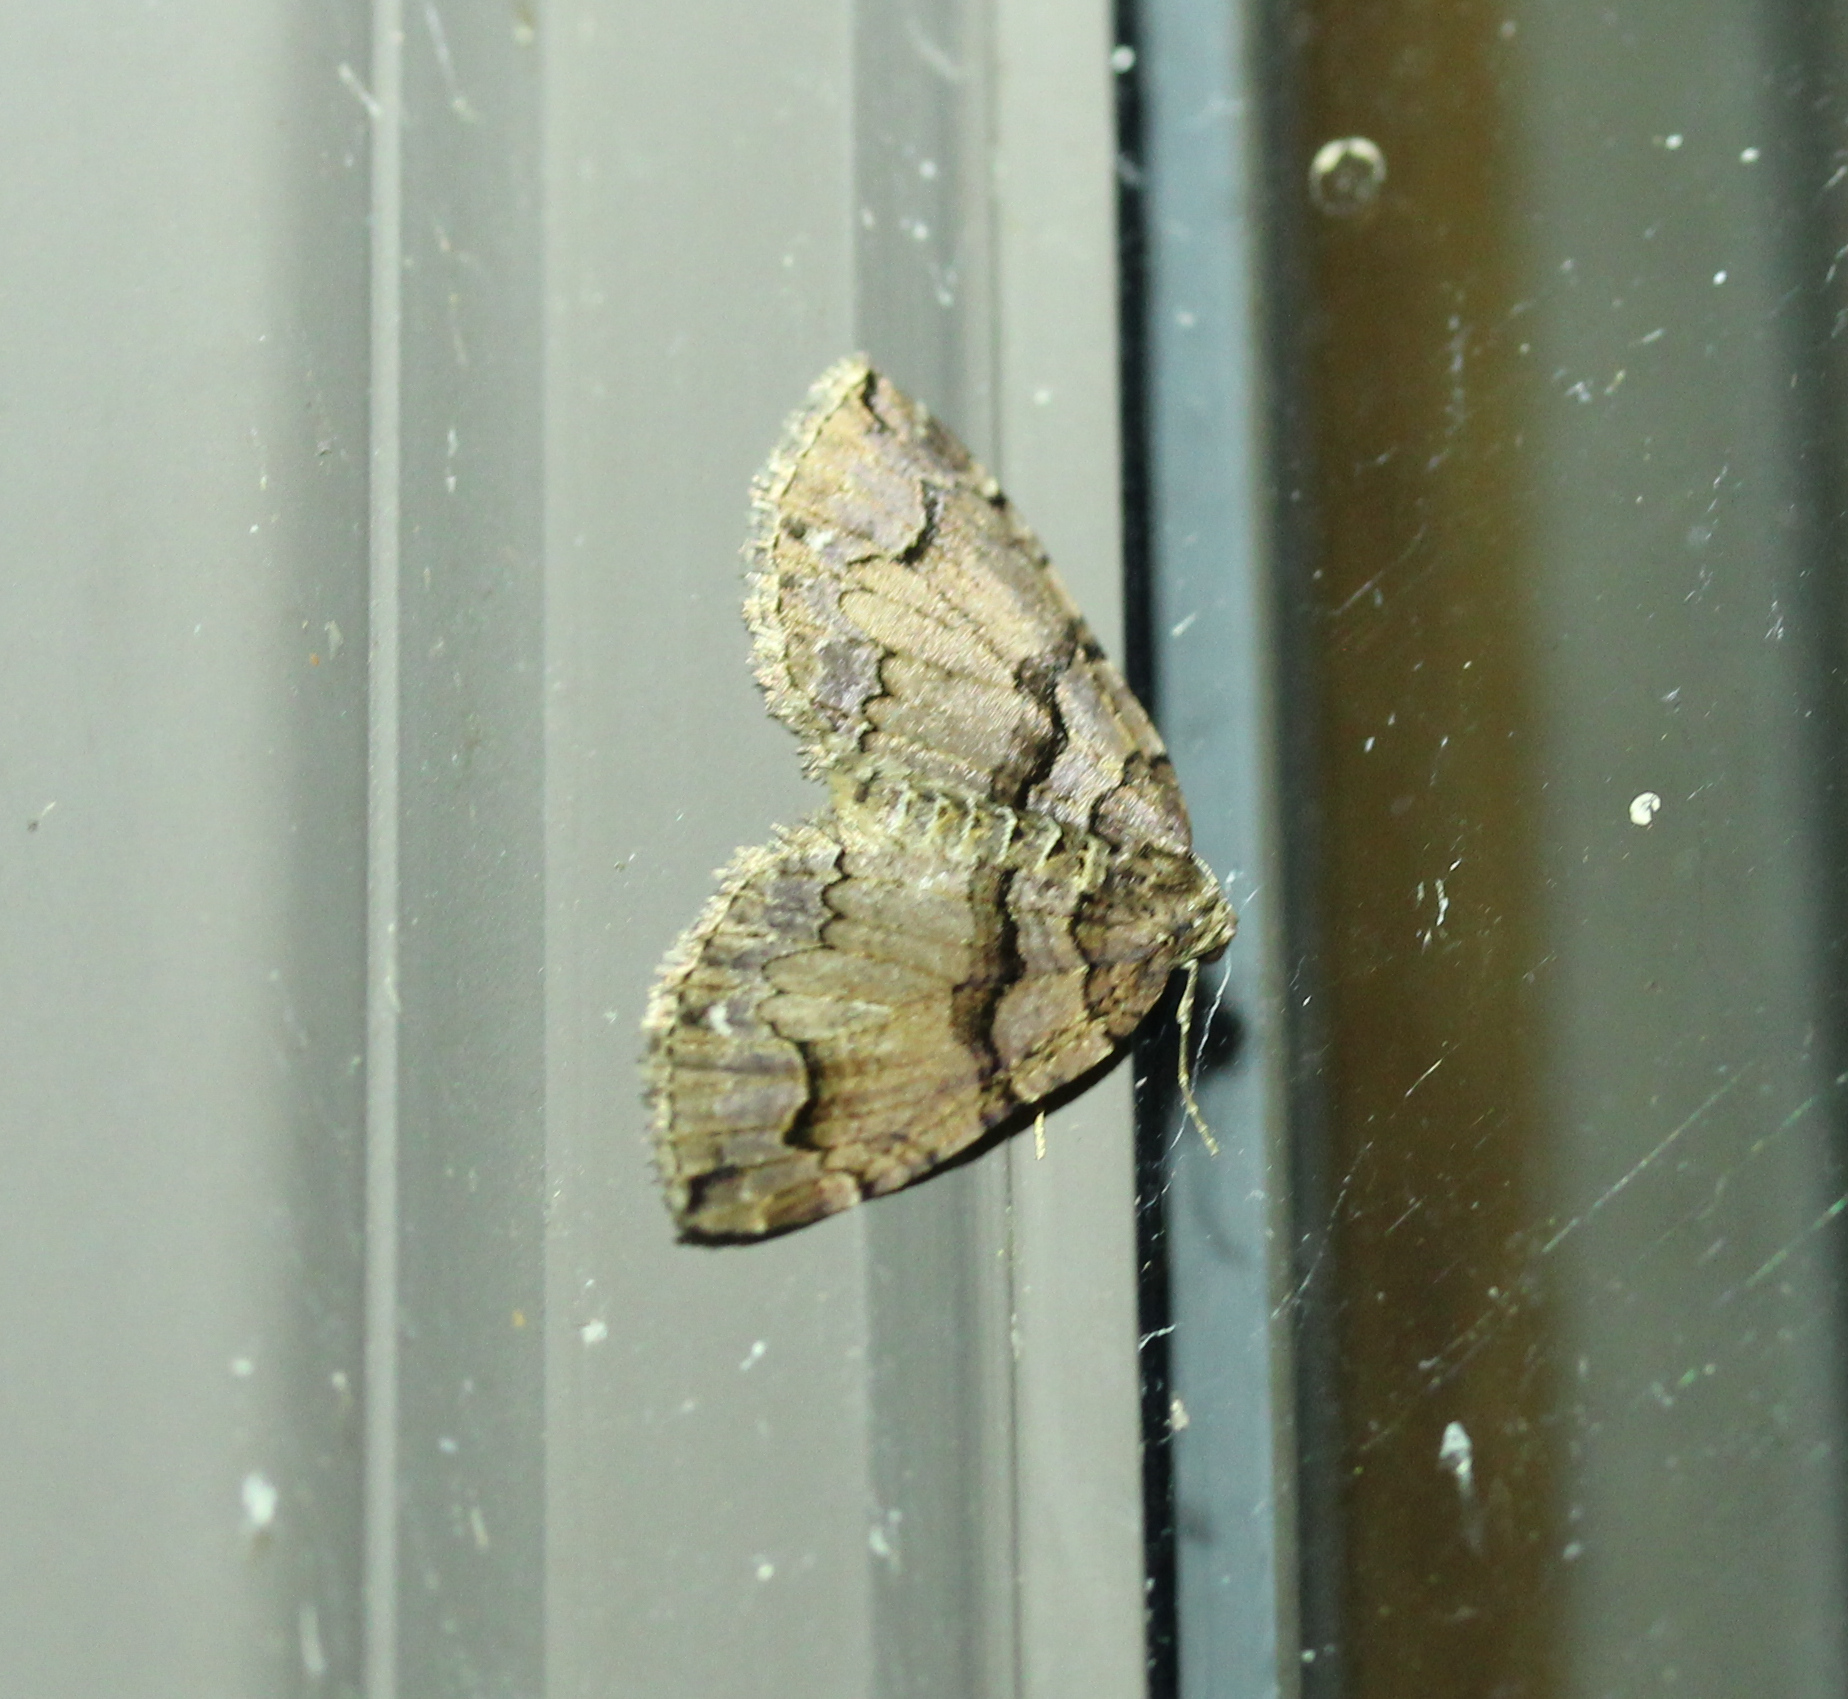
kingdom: Animalia
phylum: Arthropoda
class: Insecta
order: Lepidoptera
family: Geometridae
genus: Anticlea
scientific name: Anticlea vasiliata
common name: Variable carpet
